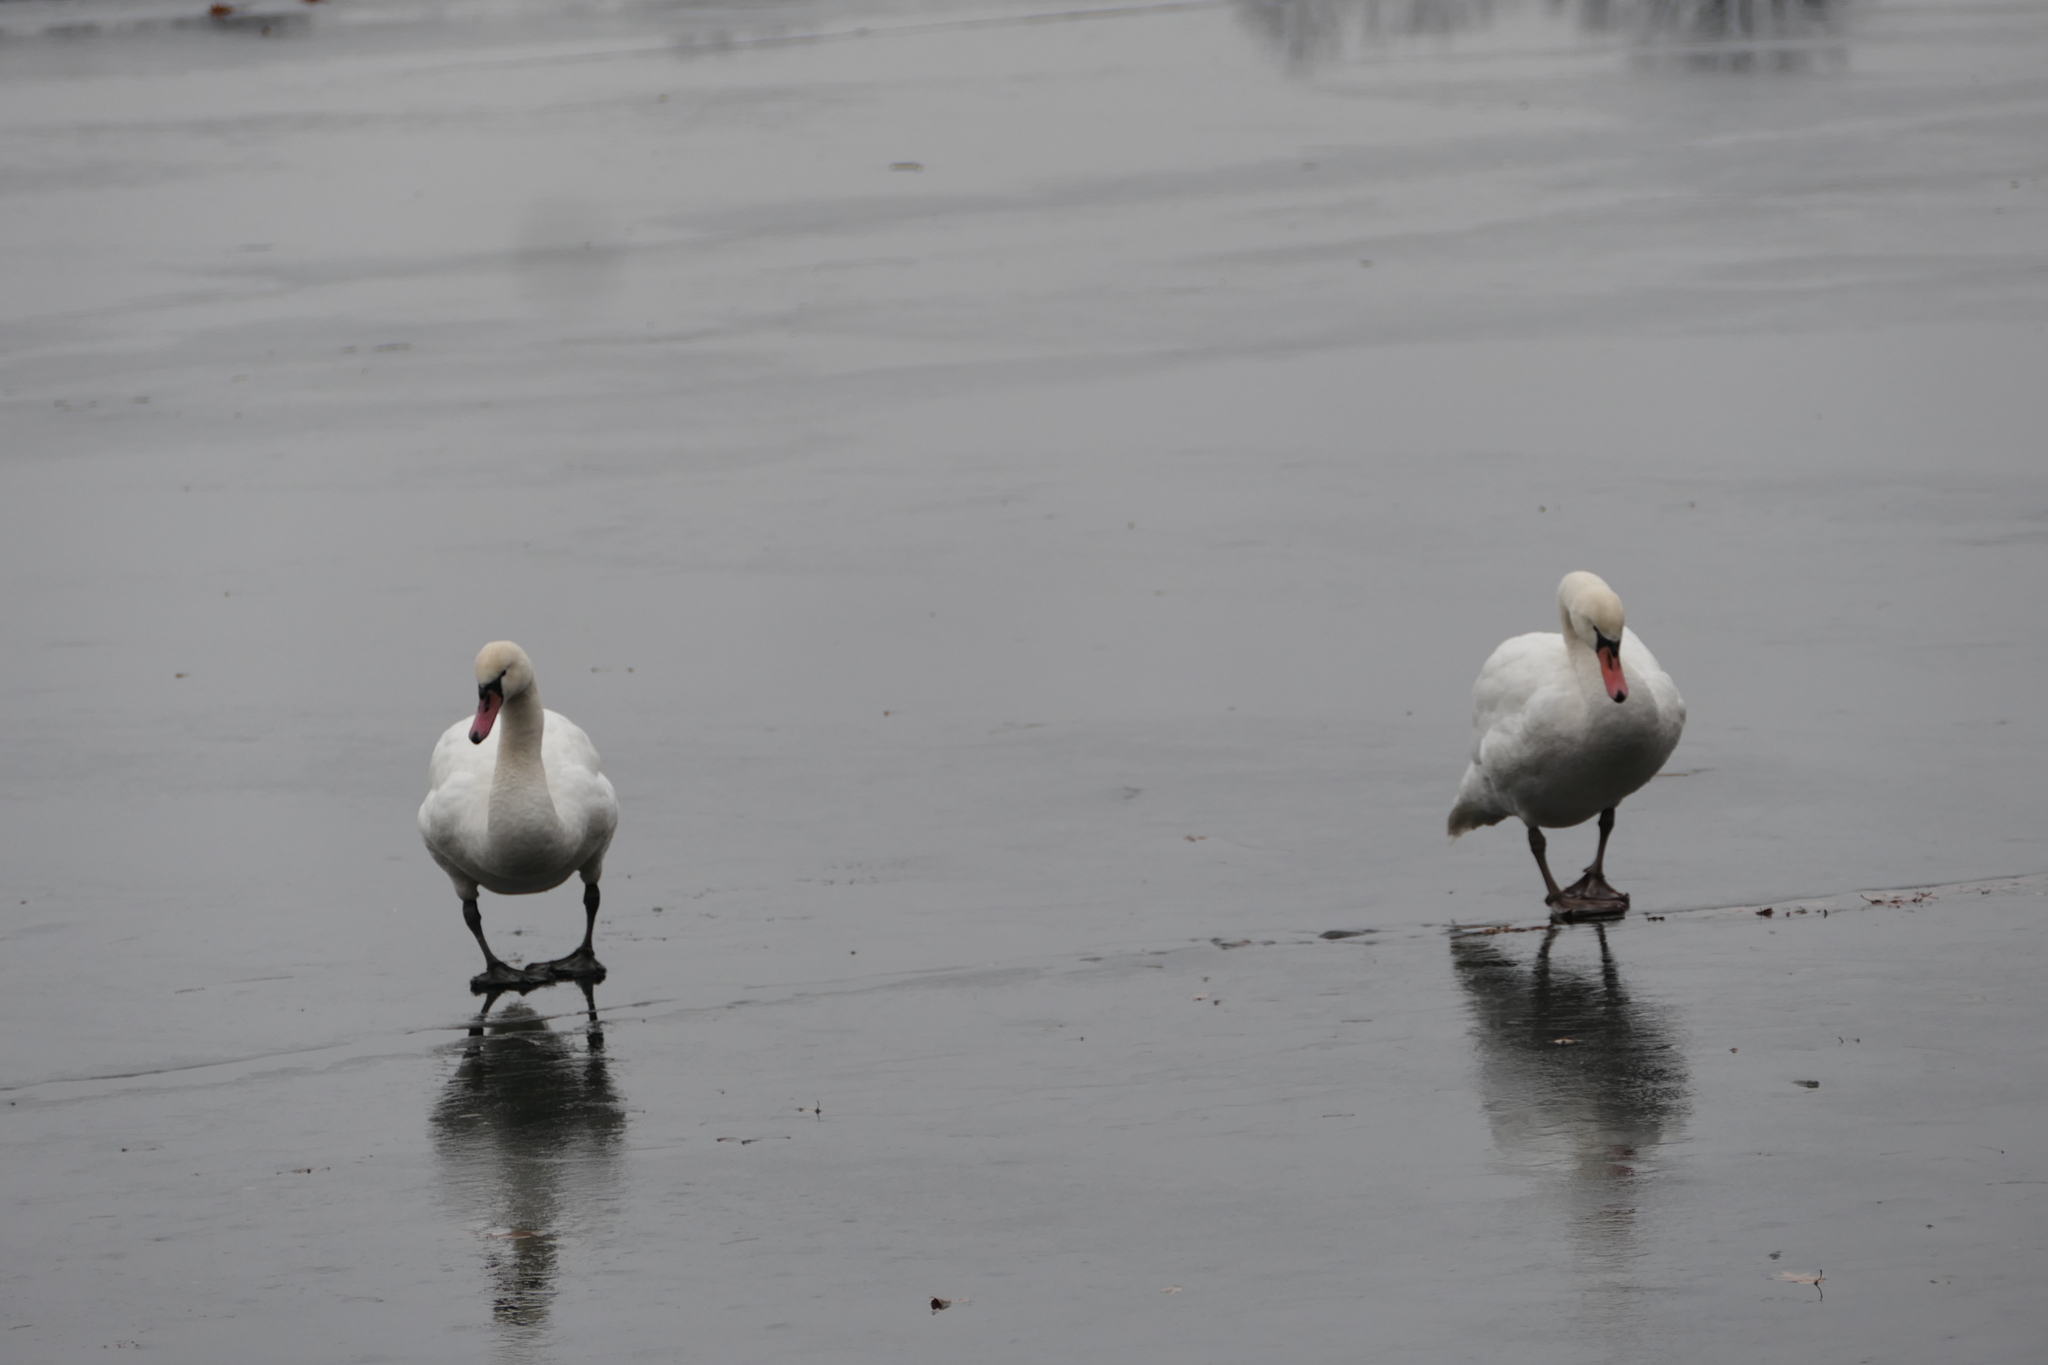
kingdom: Animalia
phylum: Chordata
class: Aves
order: Anseriformes
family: Anatidae
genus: Cygnus
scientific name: Cygnus olor
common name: Mute swan
